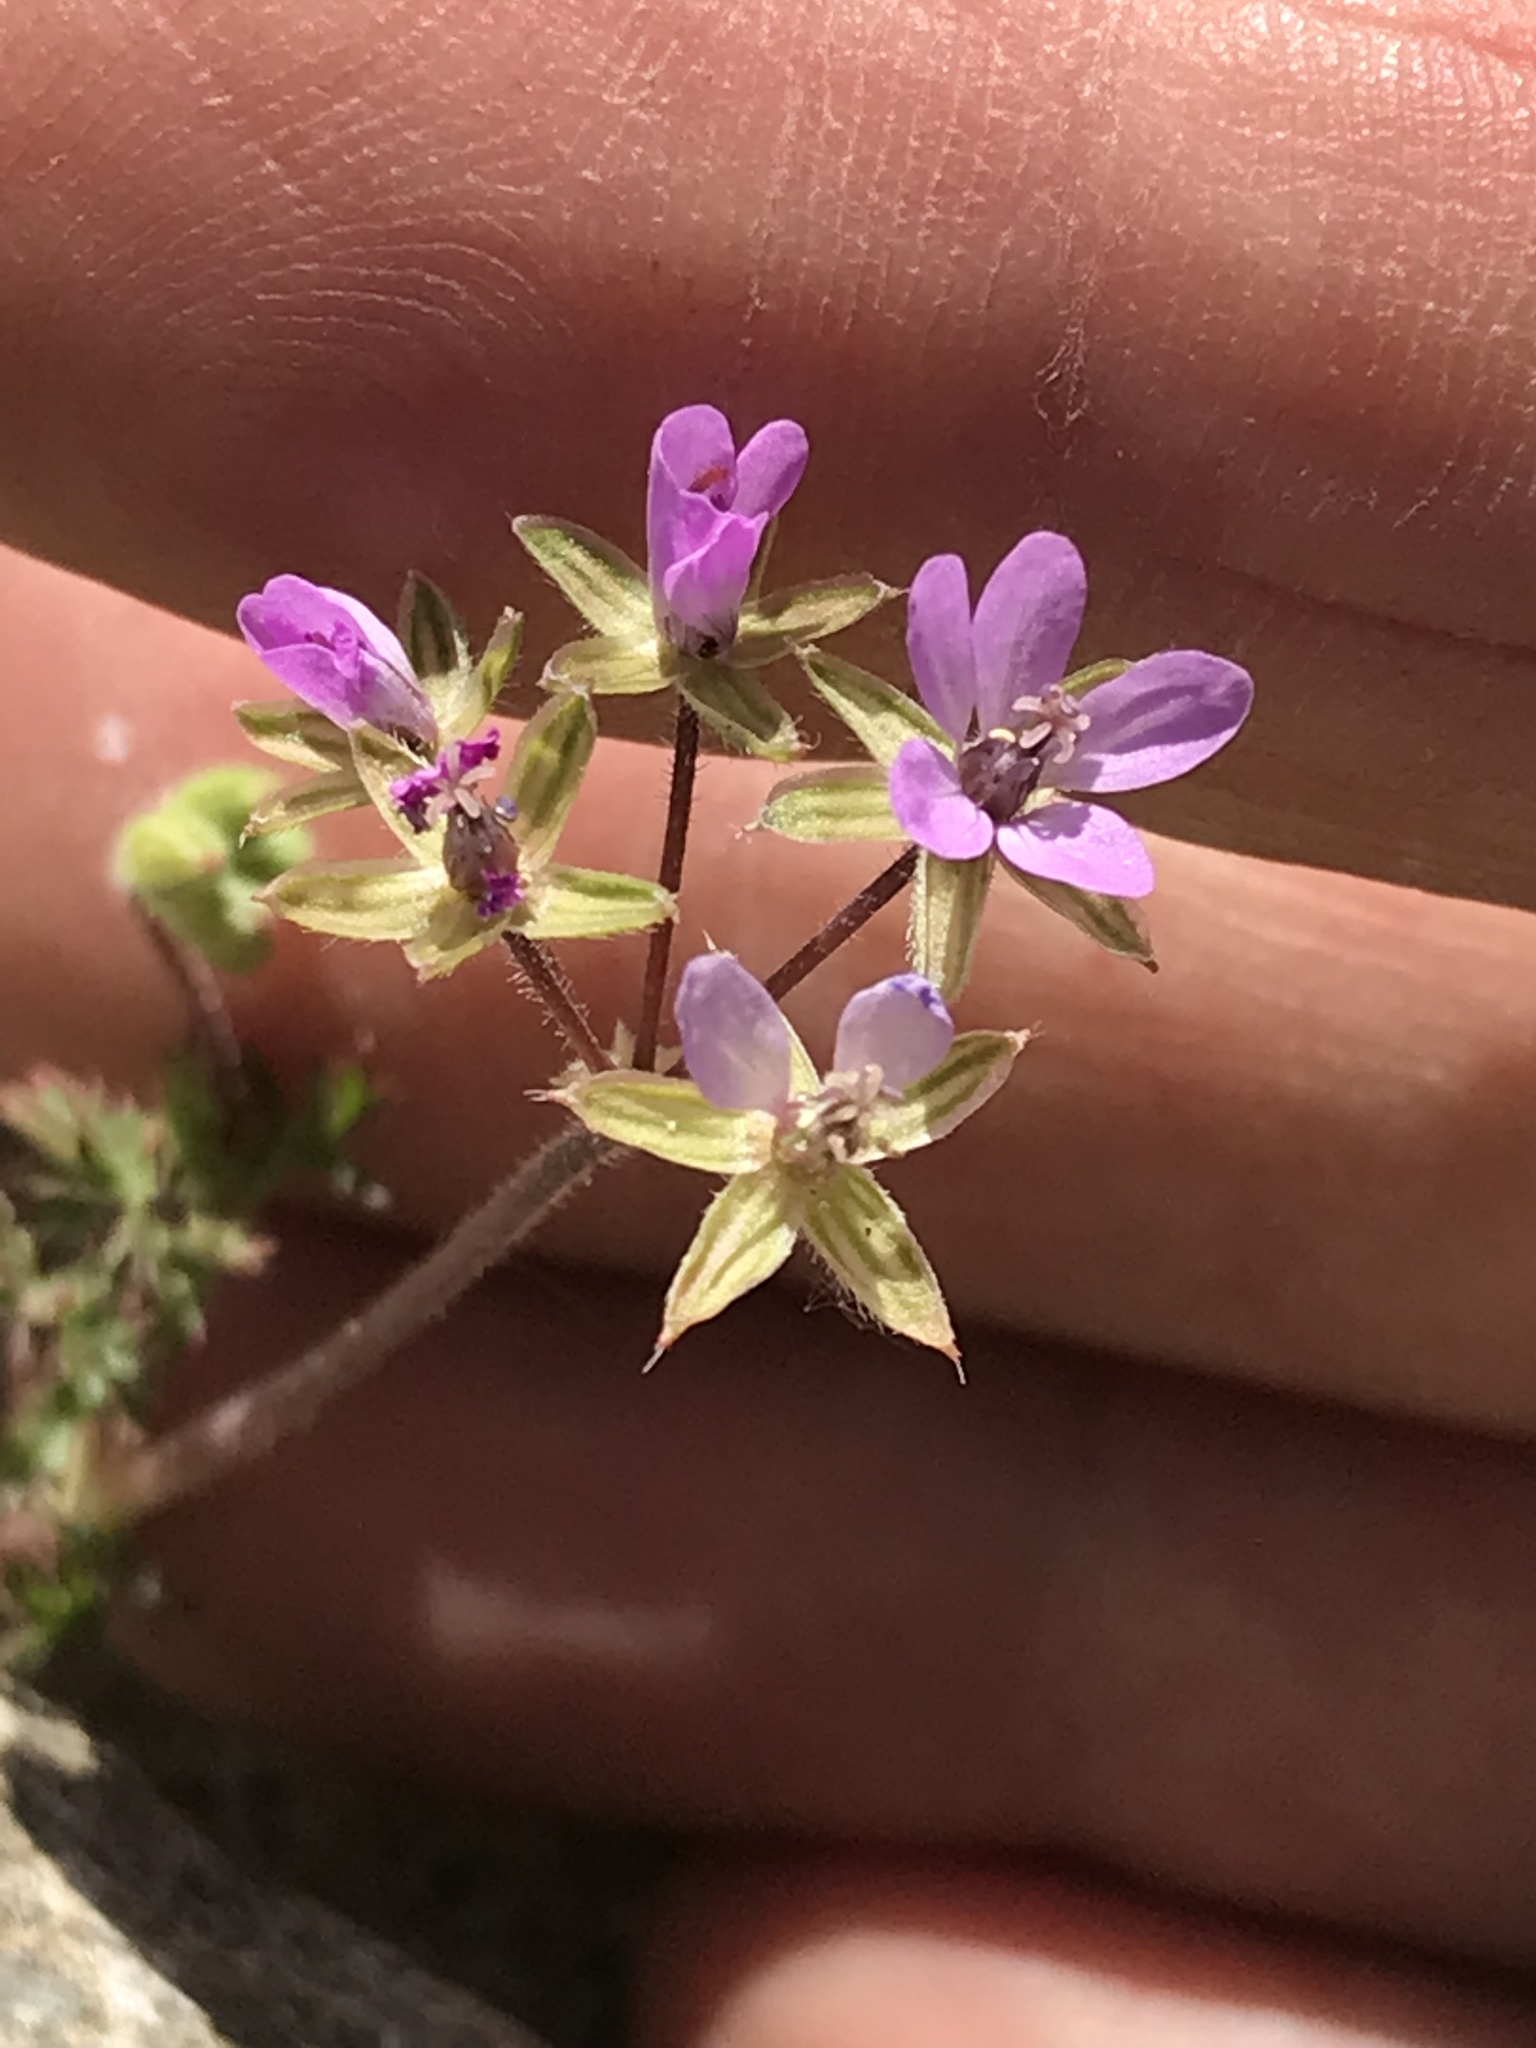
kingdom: Plantae
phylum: Tracheophyta
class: Magnoliopsida
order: Geraniales
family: Geraniaceae
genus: Erodium
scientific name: Erodium cicutarium
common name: Common stork's-bill
